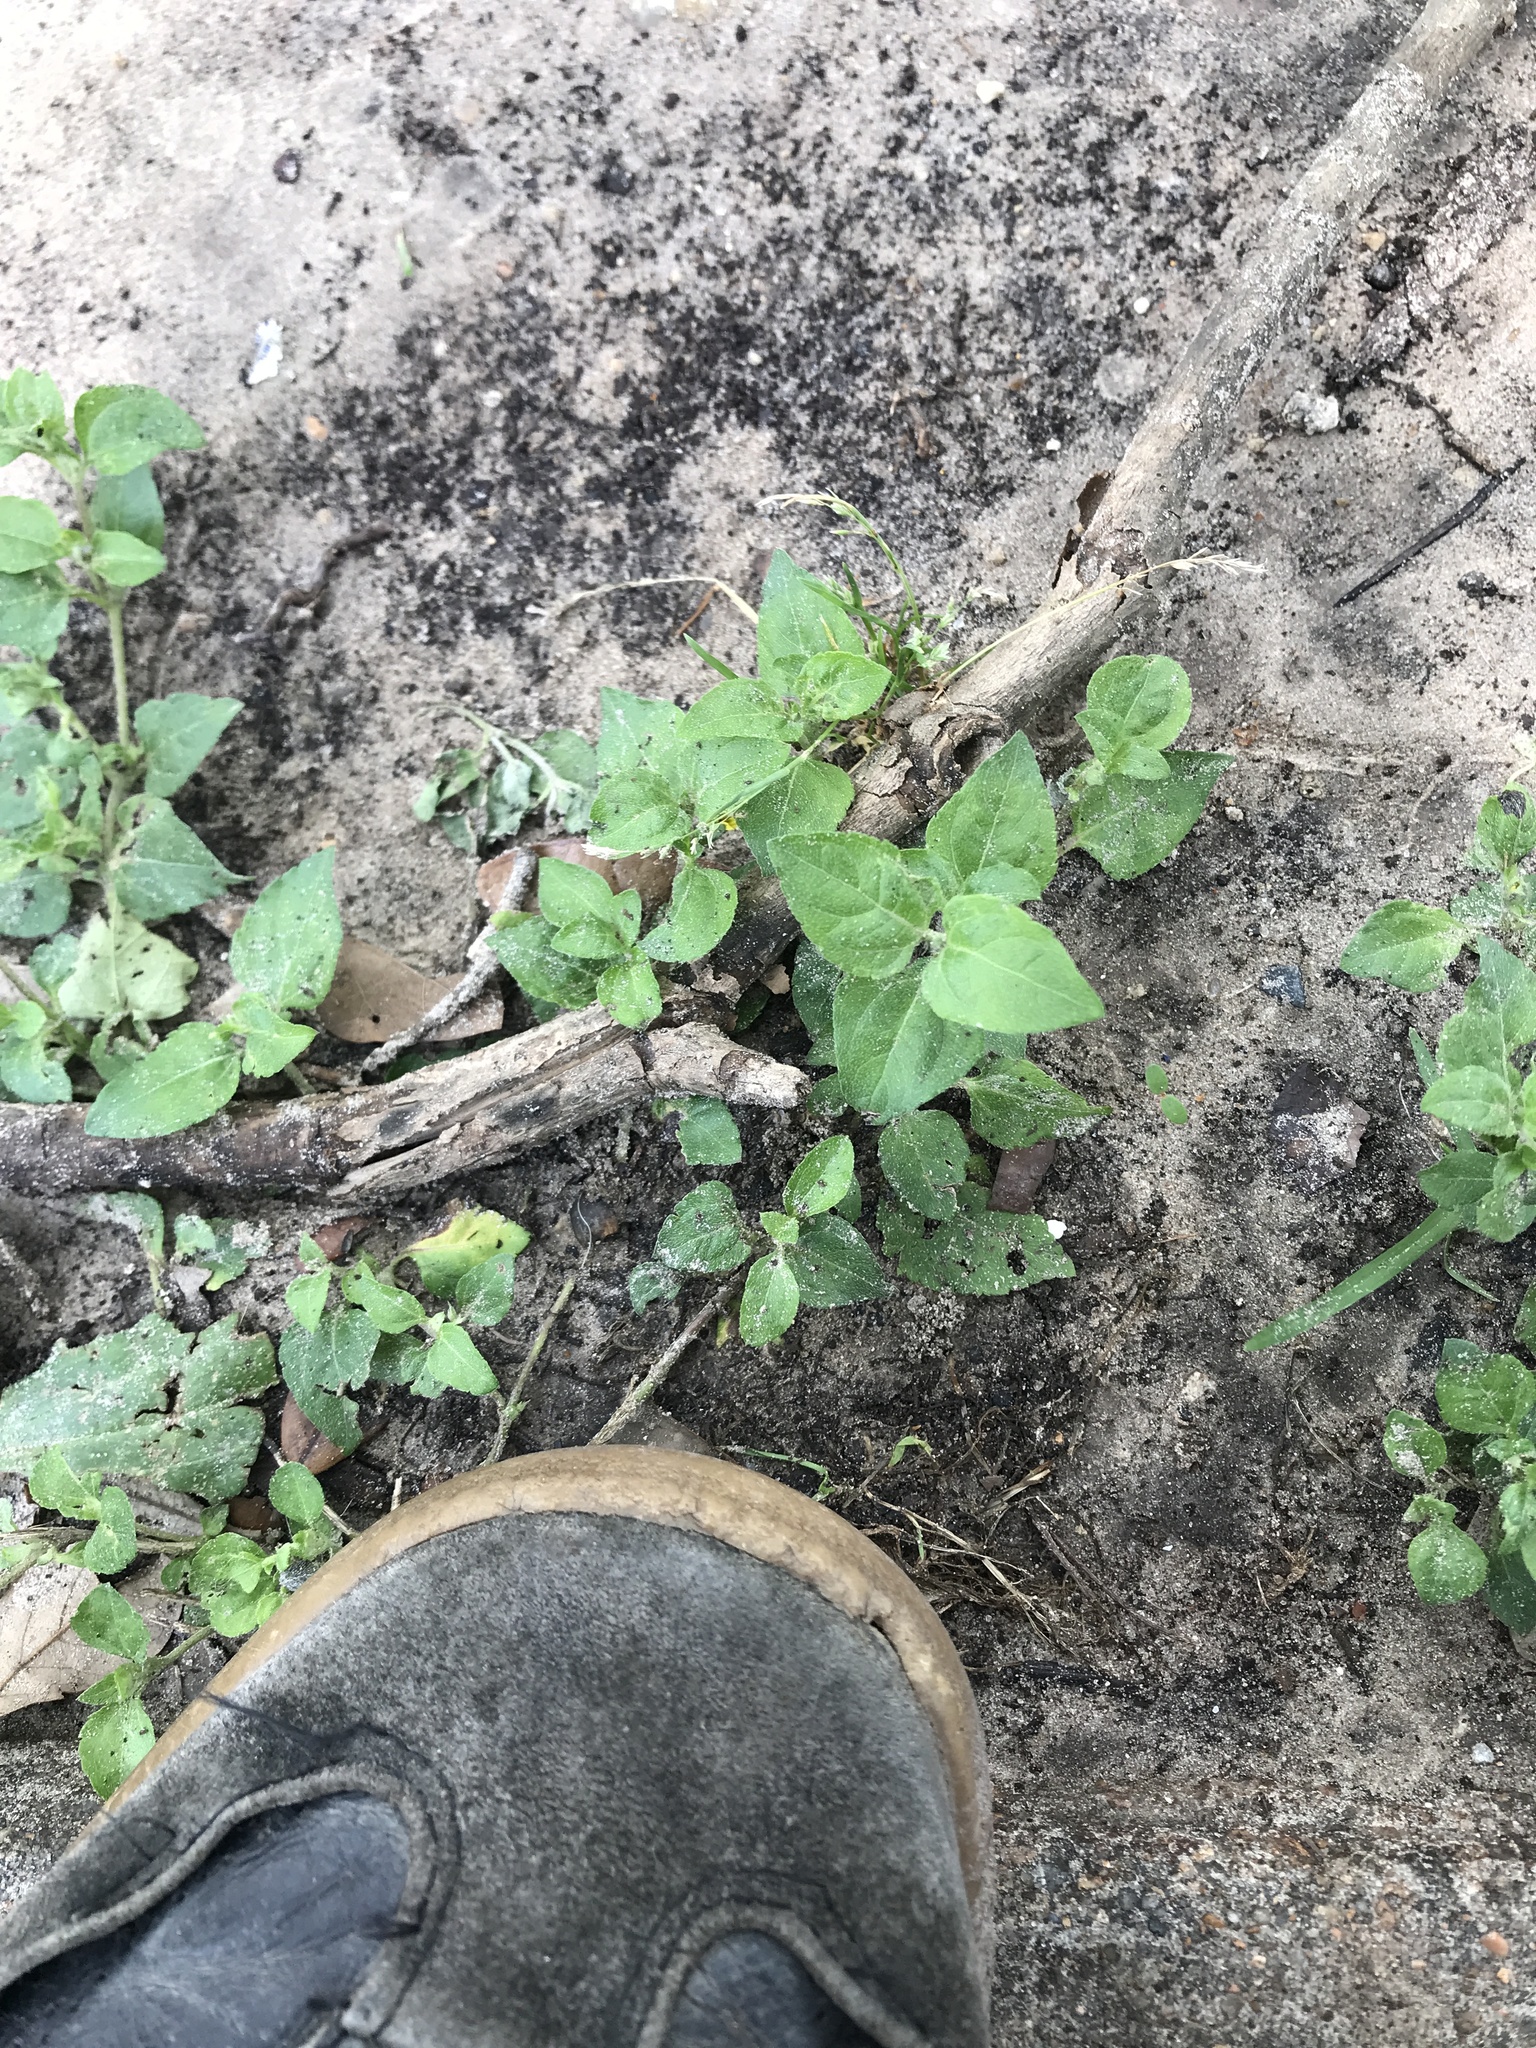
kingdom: Plantae
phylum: Tracheophyta
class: Magnoliopsida
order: Asterales
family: Asteraceae
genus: Calyptocarpus
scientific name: Calyptocarpus vialis
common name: Straggler daisy
